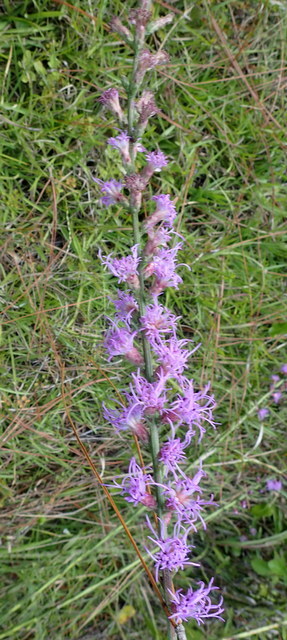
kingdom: Plantae
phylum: Tracheophyta
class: Magnoliopsida
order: Asterales
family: Asteraceae
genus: Liatris
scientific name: Liatris spicata
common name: Florist gayfeather
